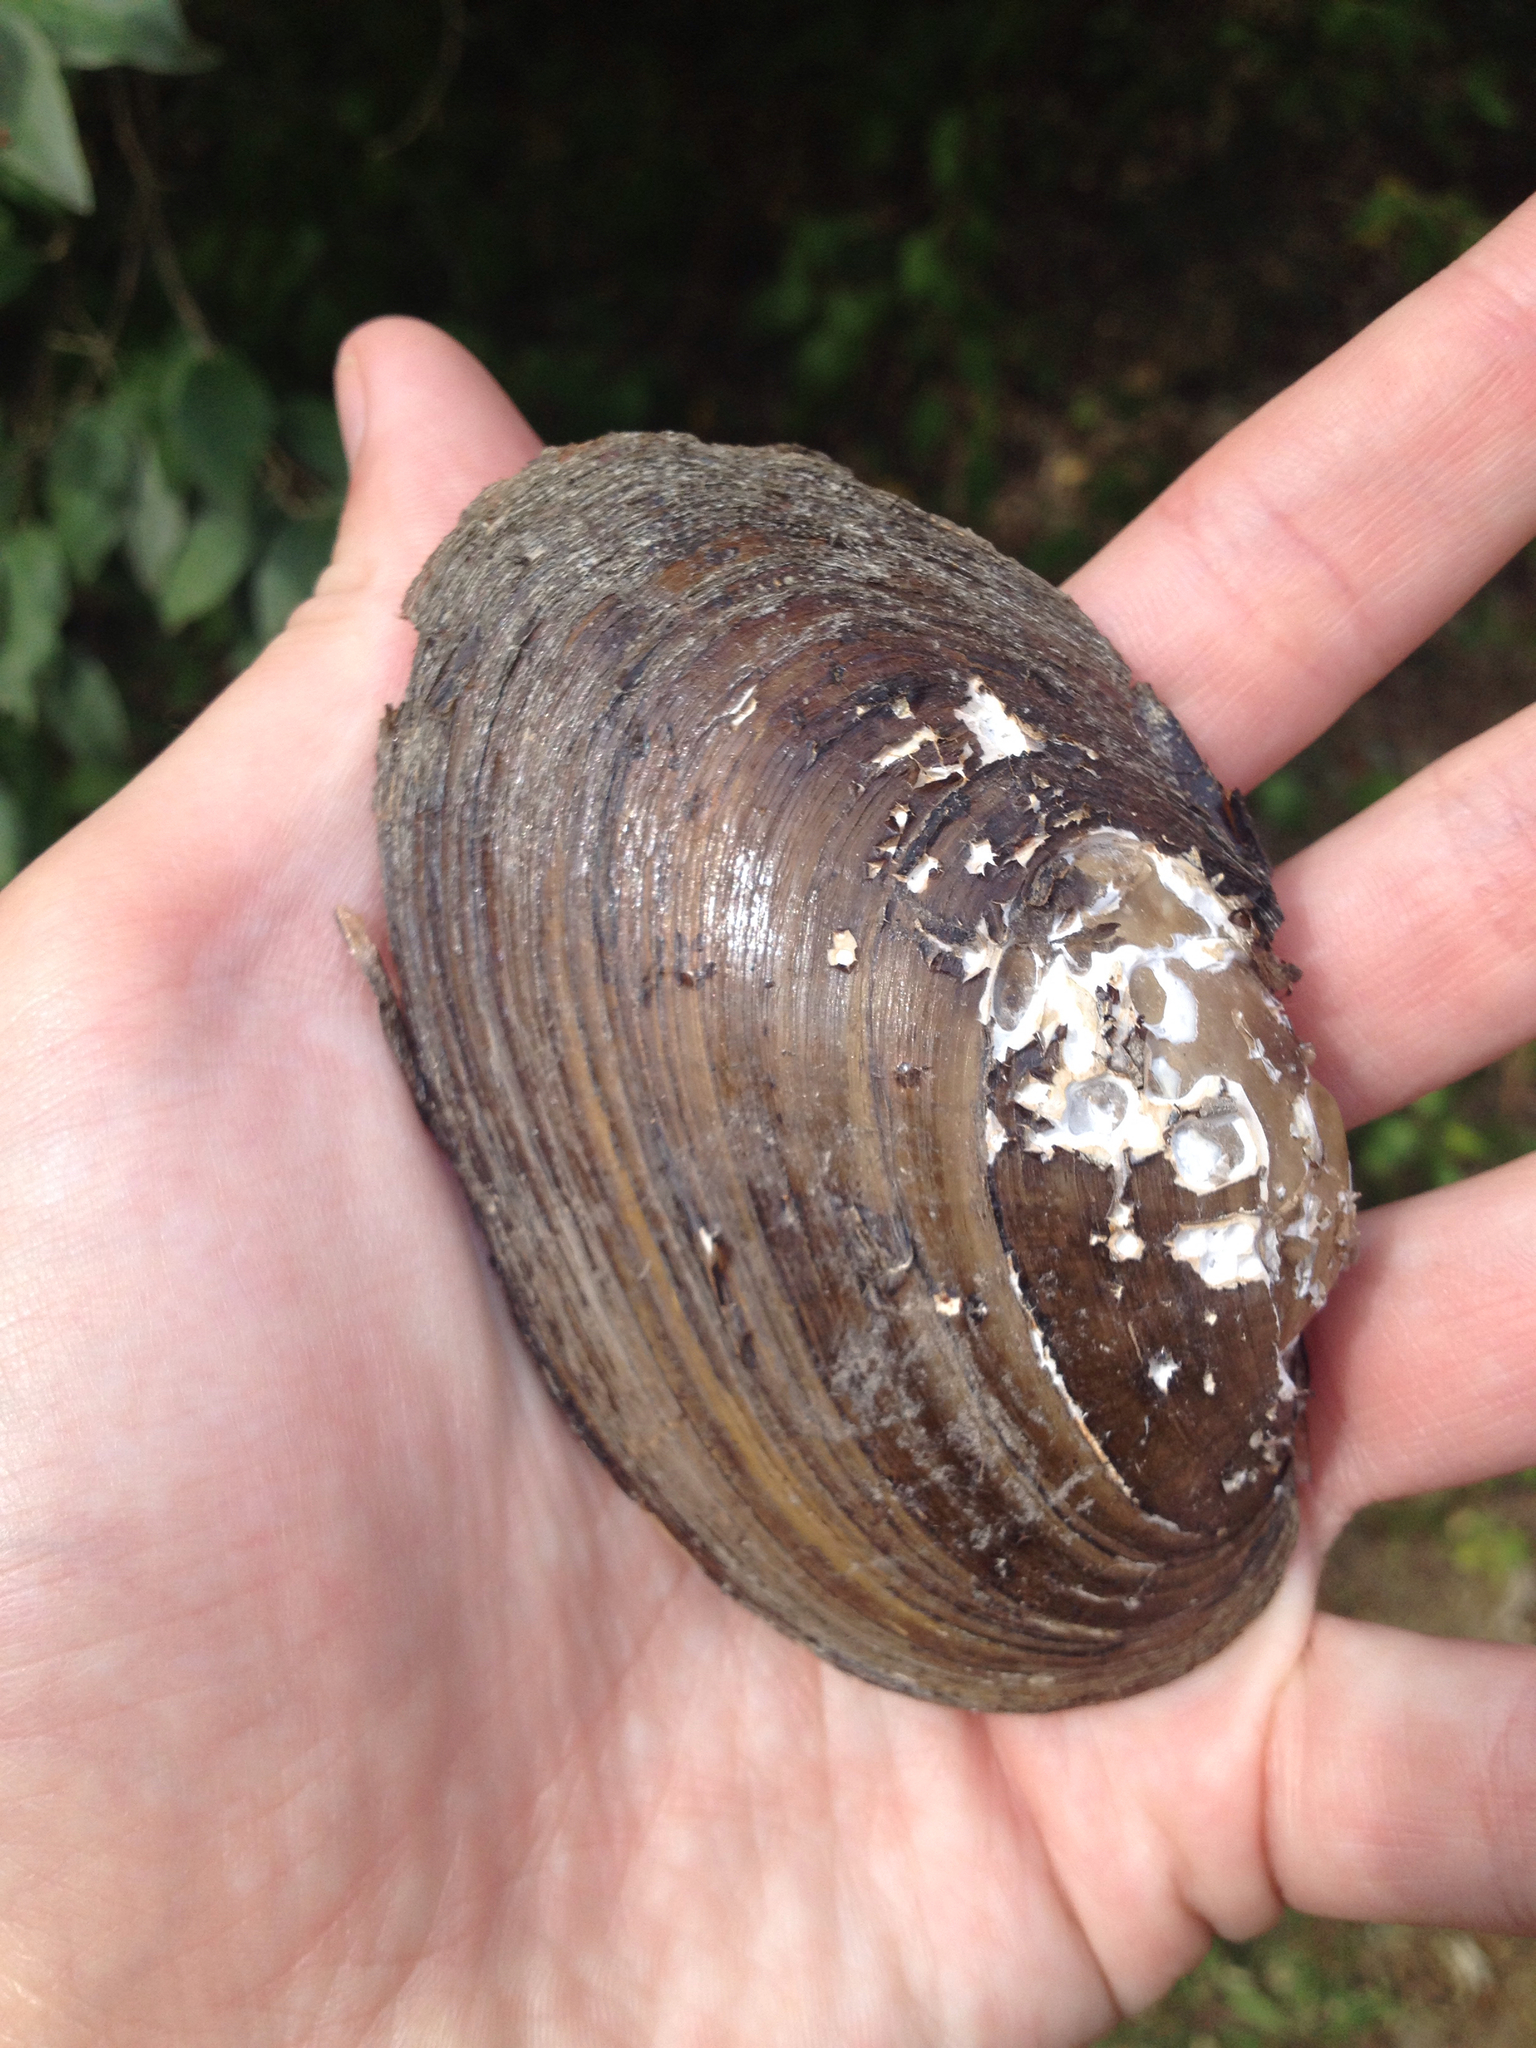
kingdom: Animalia
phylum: Mollusca
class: Bivalvia
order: Unionida
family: Unionidae
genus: Lampsilis
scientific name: Lampsilis radiata
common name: Eastern lampmussel
